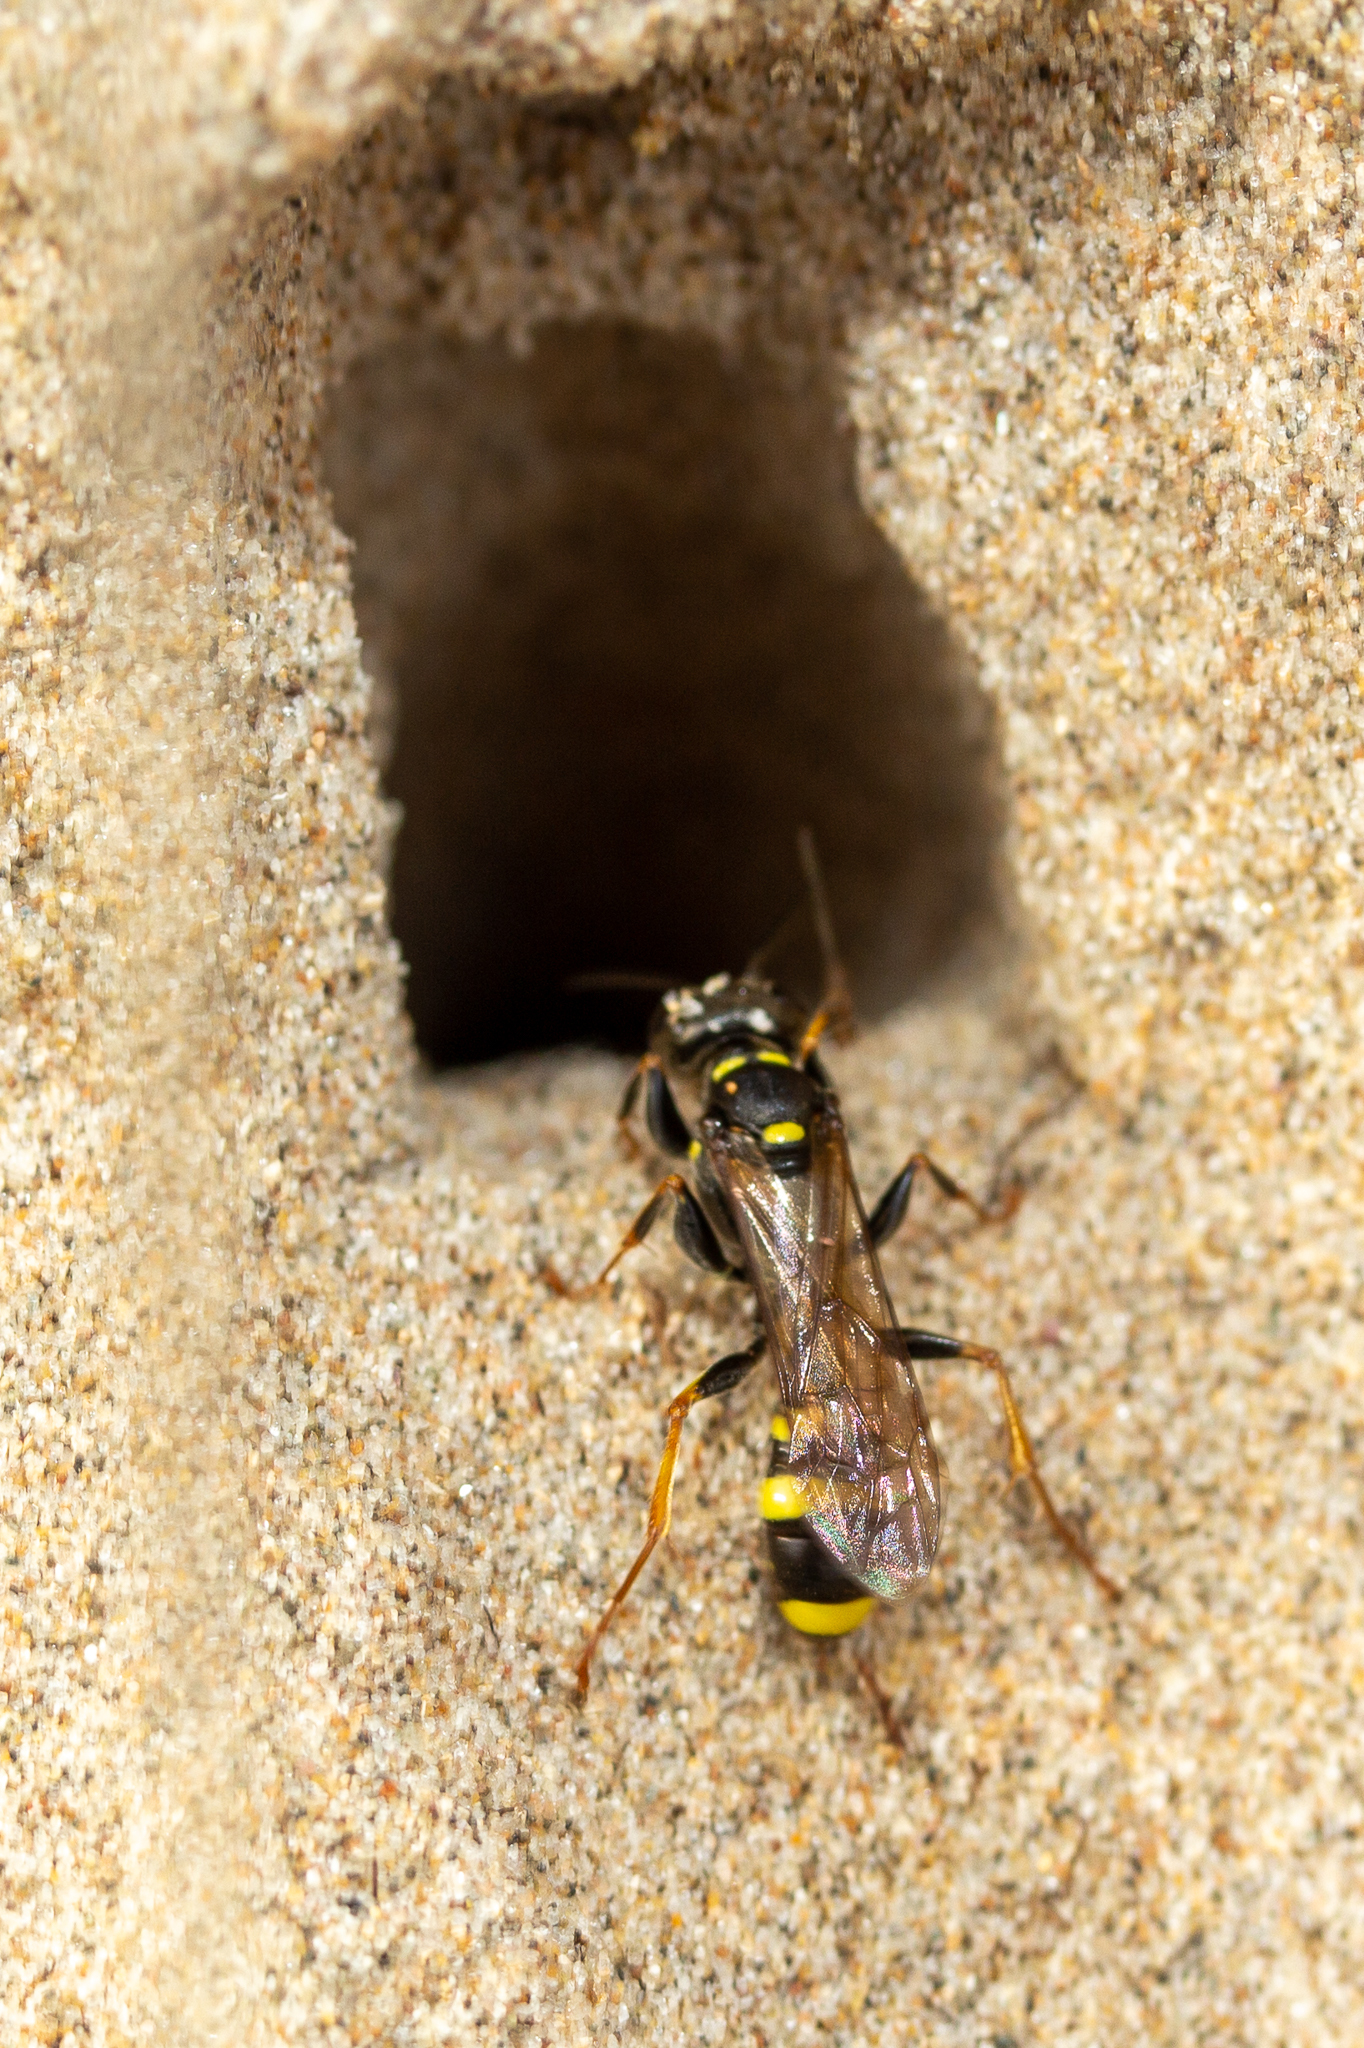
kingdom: Animalia
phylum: Arthropoda
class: Insecta
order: Hymenoptera
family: Crabronidae
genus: Mellinus
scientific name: Mellinus arvensis
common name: Field digger wasp
